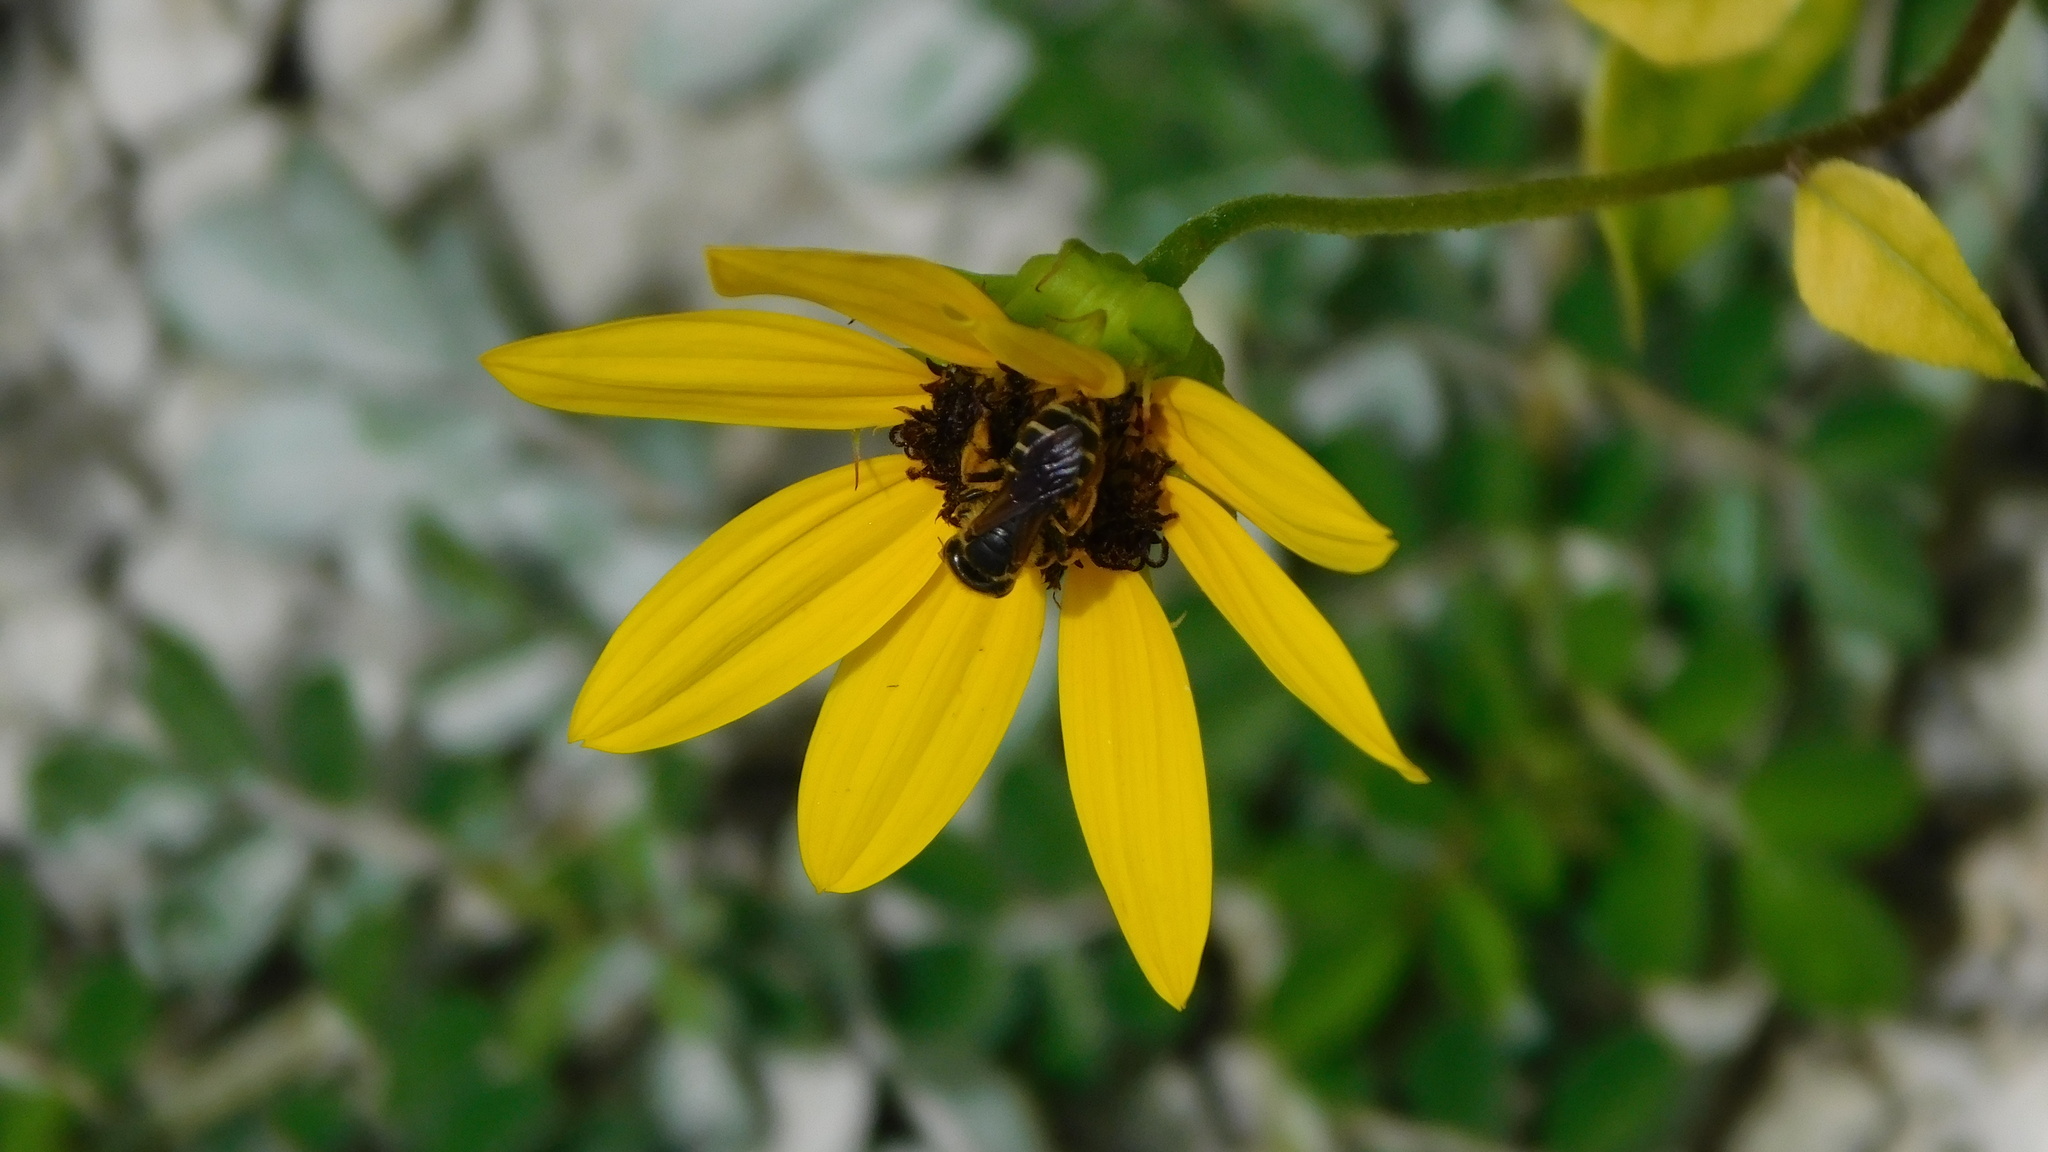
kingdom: Animalia
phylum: Arthropoda
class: Insecta
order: Hymenoptera
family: Halictidae
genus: Halictus
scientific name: Halictus poeyi
